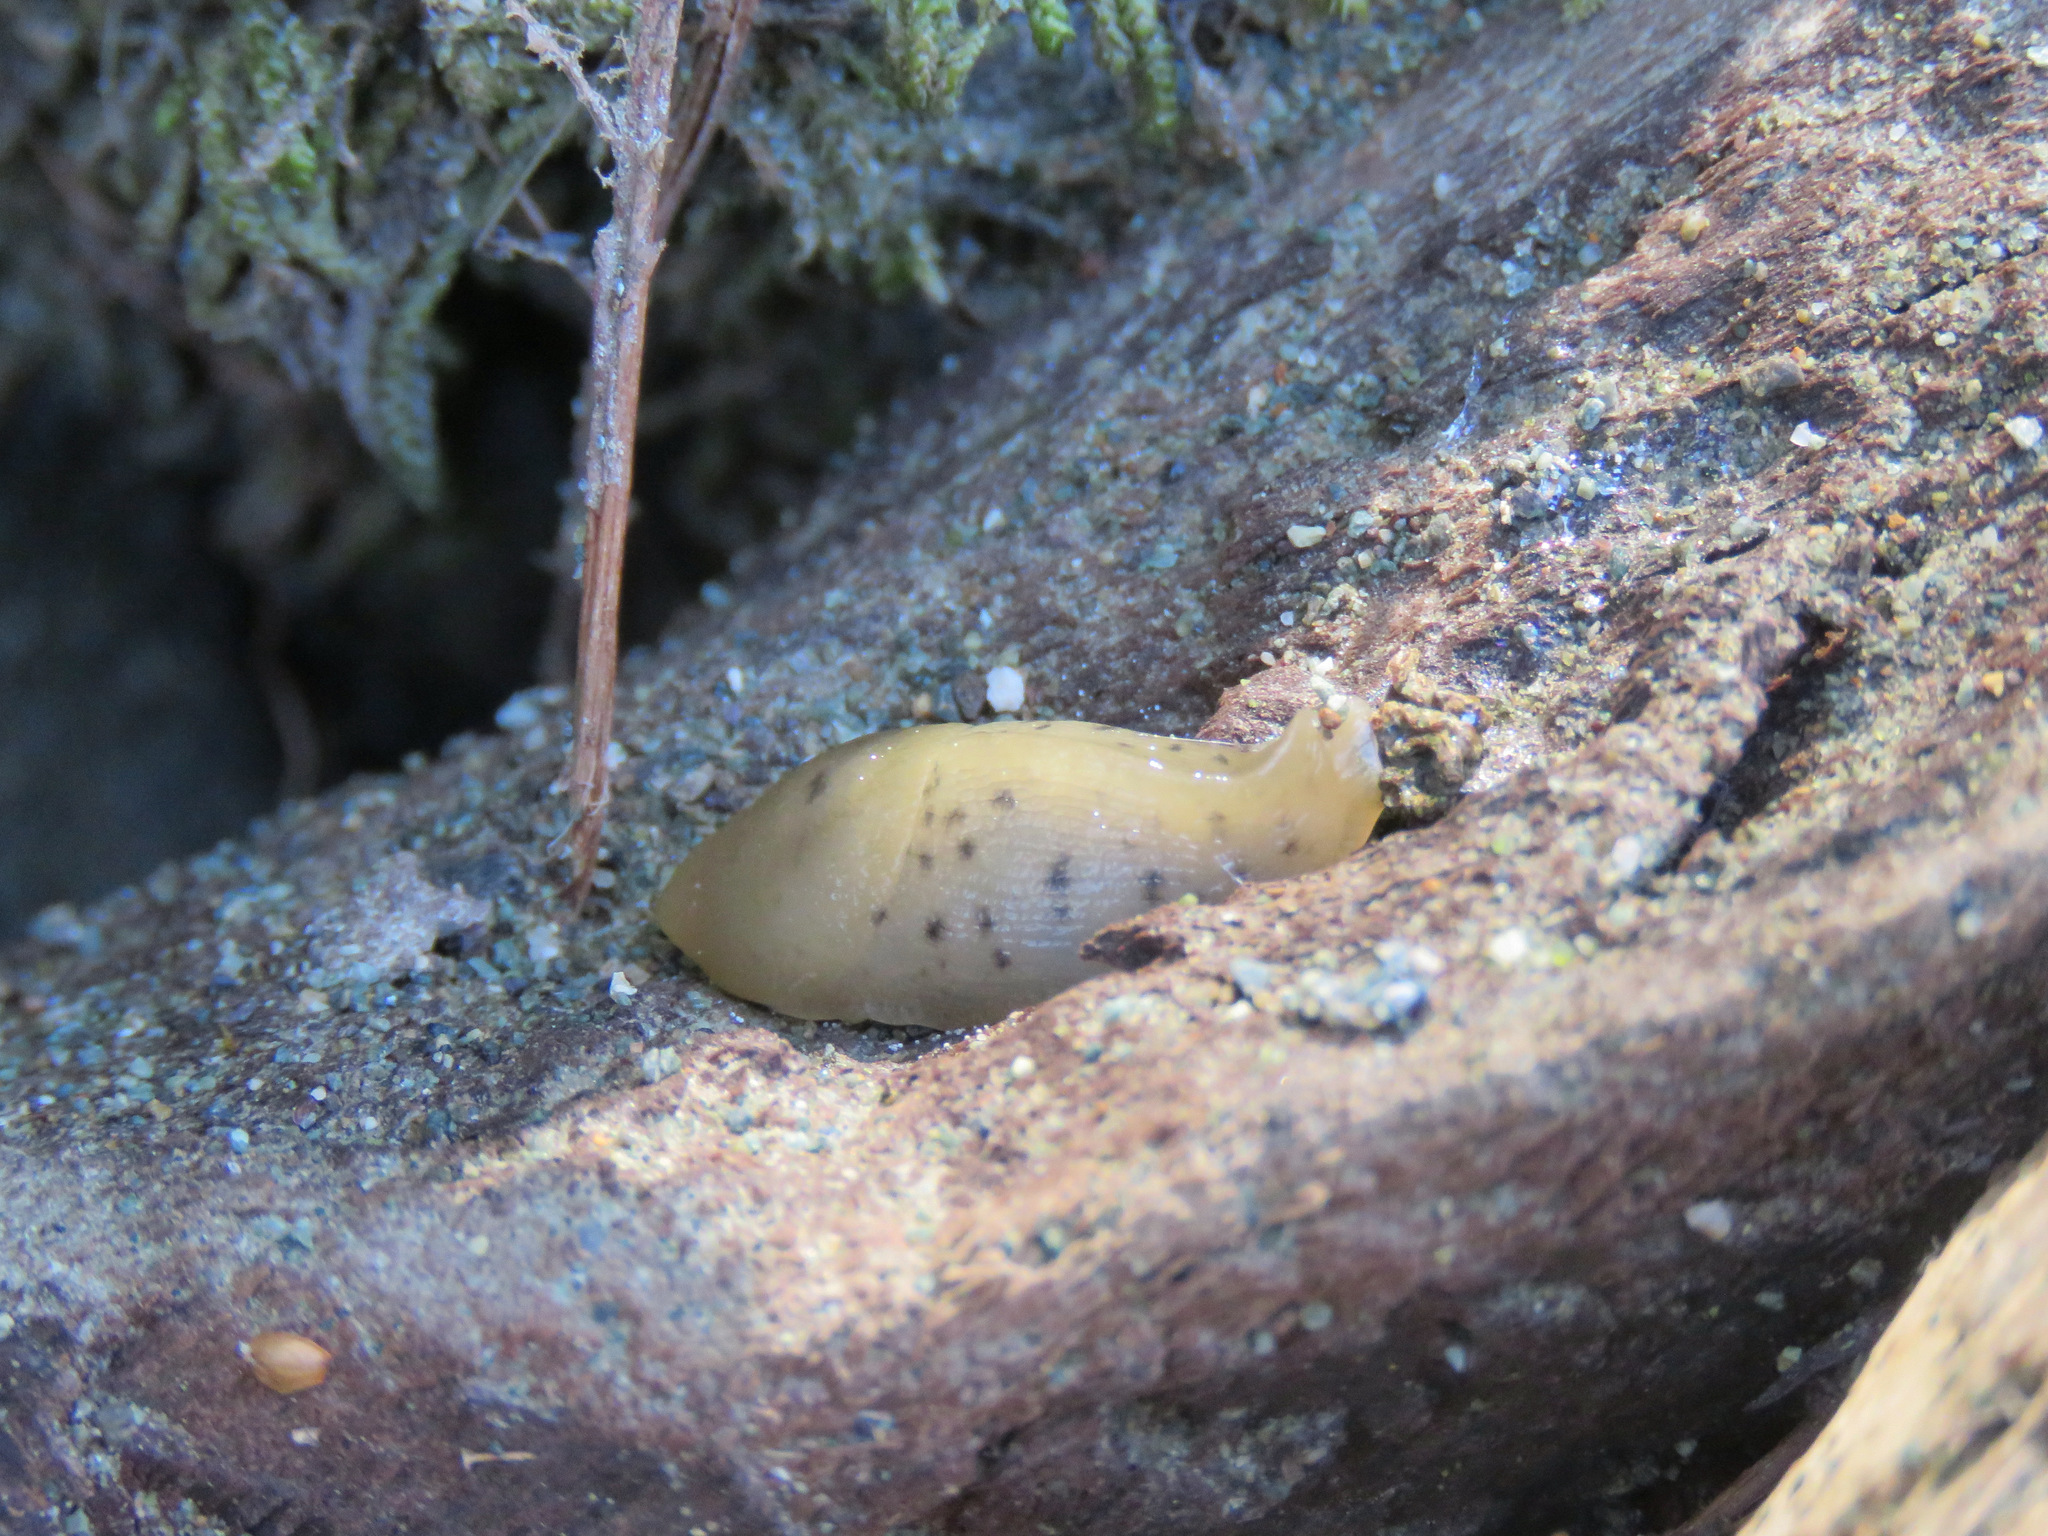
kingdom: Animalia
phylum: Mollusca
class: Gastropoda
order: Stylommatophora
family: Ariolimacidae
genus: Ariolimax
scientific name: Ariolimax columbianus
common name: Pacific banana slug
